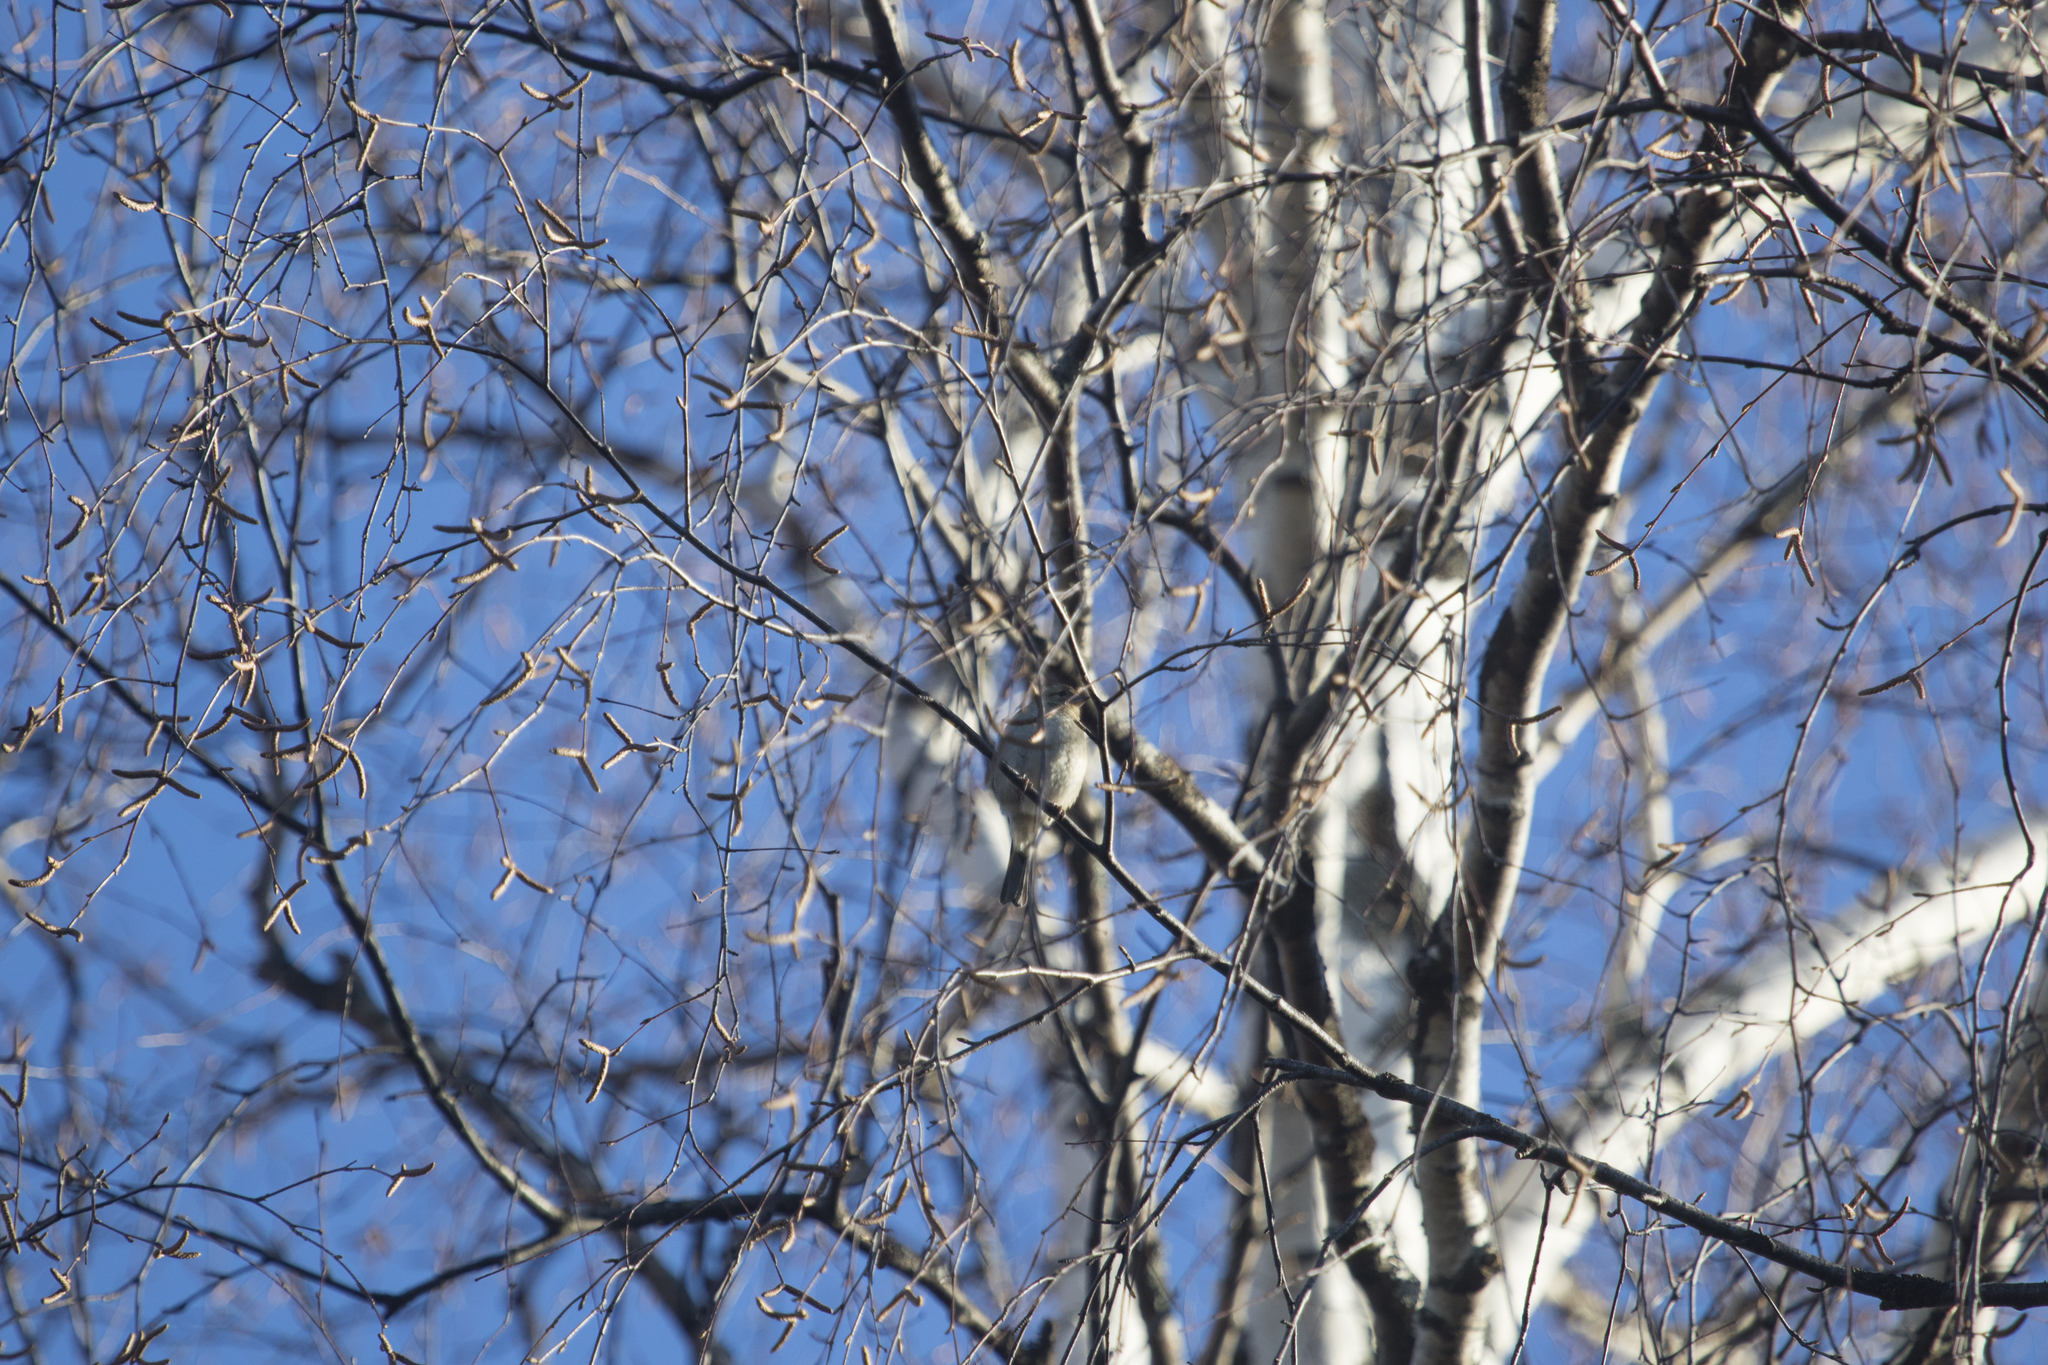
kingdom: Animalia
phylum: Chordata
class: Aves
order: Passeriformes
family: Fringillidae
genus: Fringilla
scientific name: Fringilla coelebs
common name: Common chaffinch
